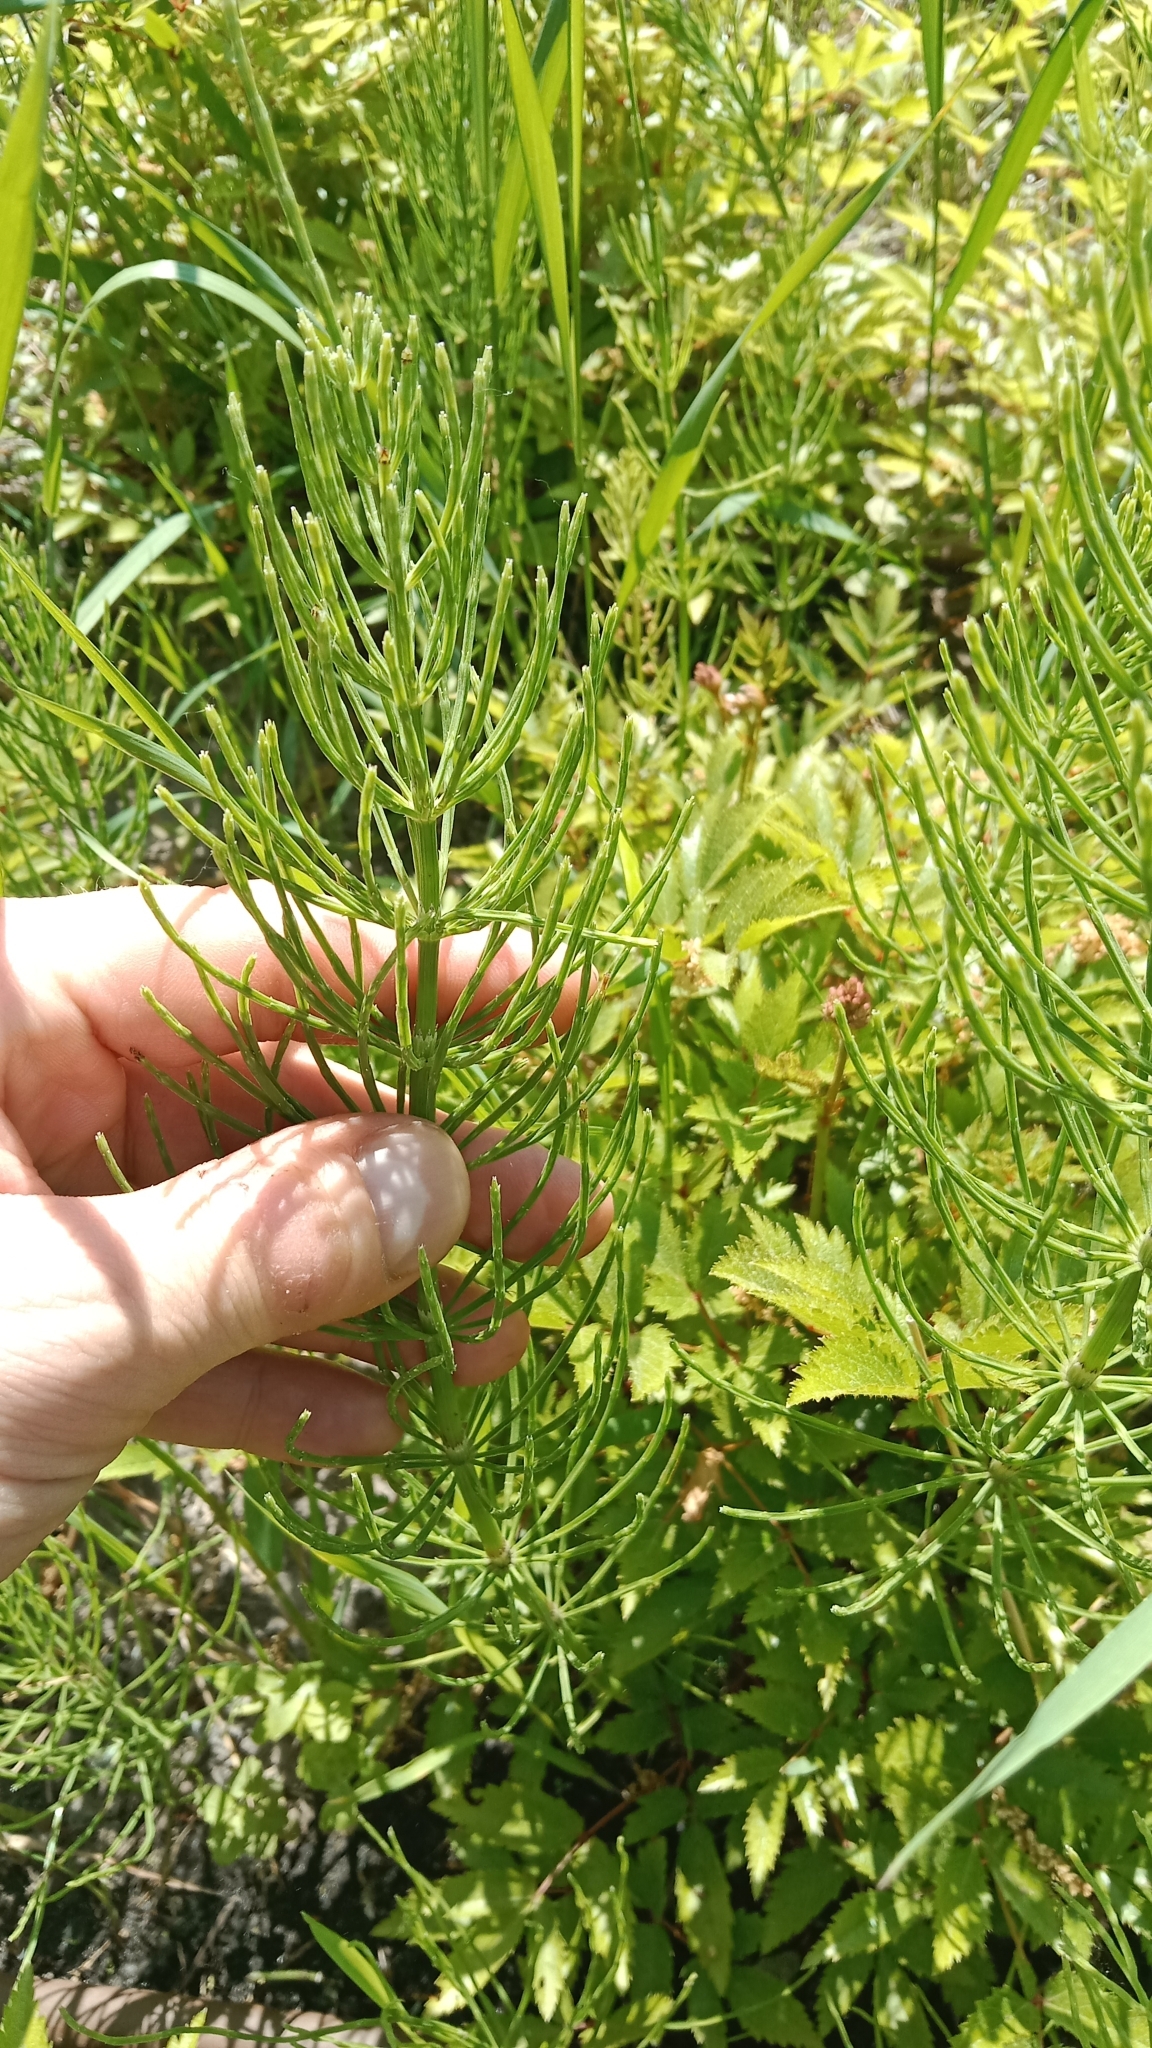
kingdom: Plantae
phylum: Tracheophyta
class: Polypodiopsida
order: Equisetales
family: Equisetaceae
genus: Equisetum
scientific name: Equisetum arvense
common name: Field horsetail
